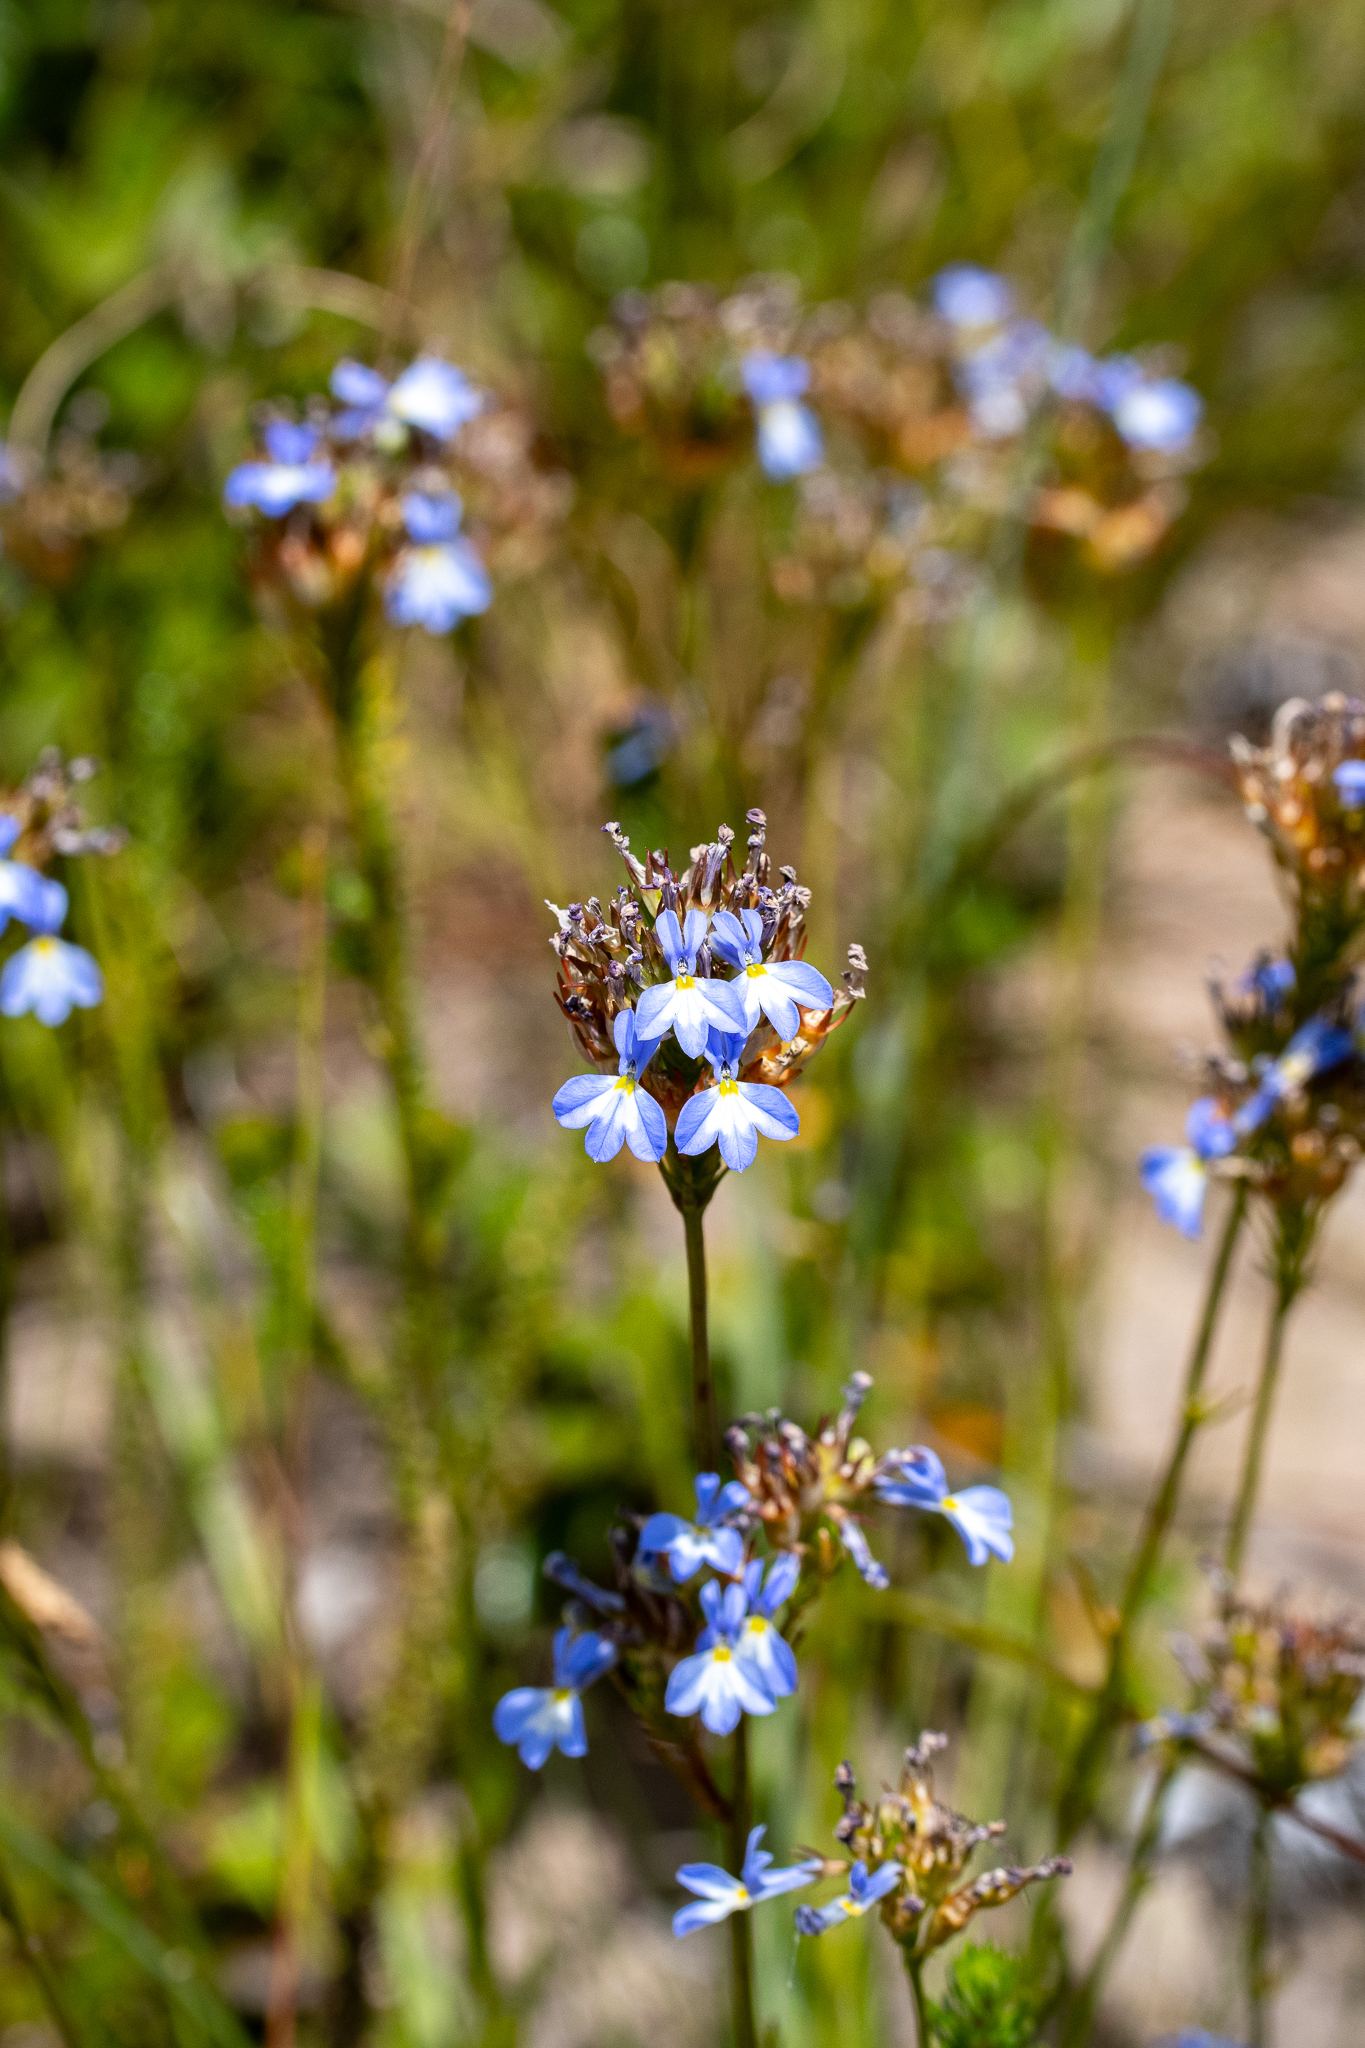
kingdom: Plantae
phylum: Tracheophyta
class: Magnoliopsida
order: Asterales
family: Campanulaceae
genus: Lobelia
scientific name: Lobelia comosa
